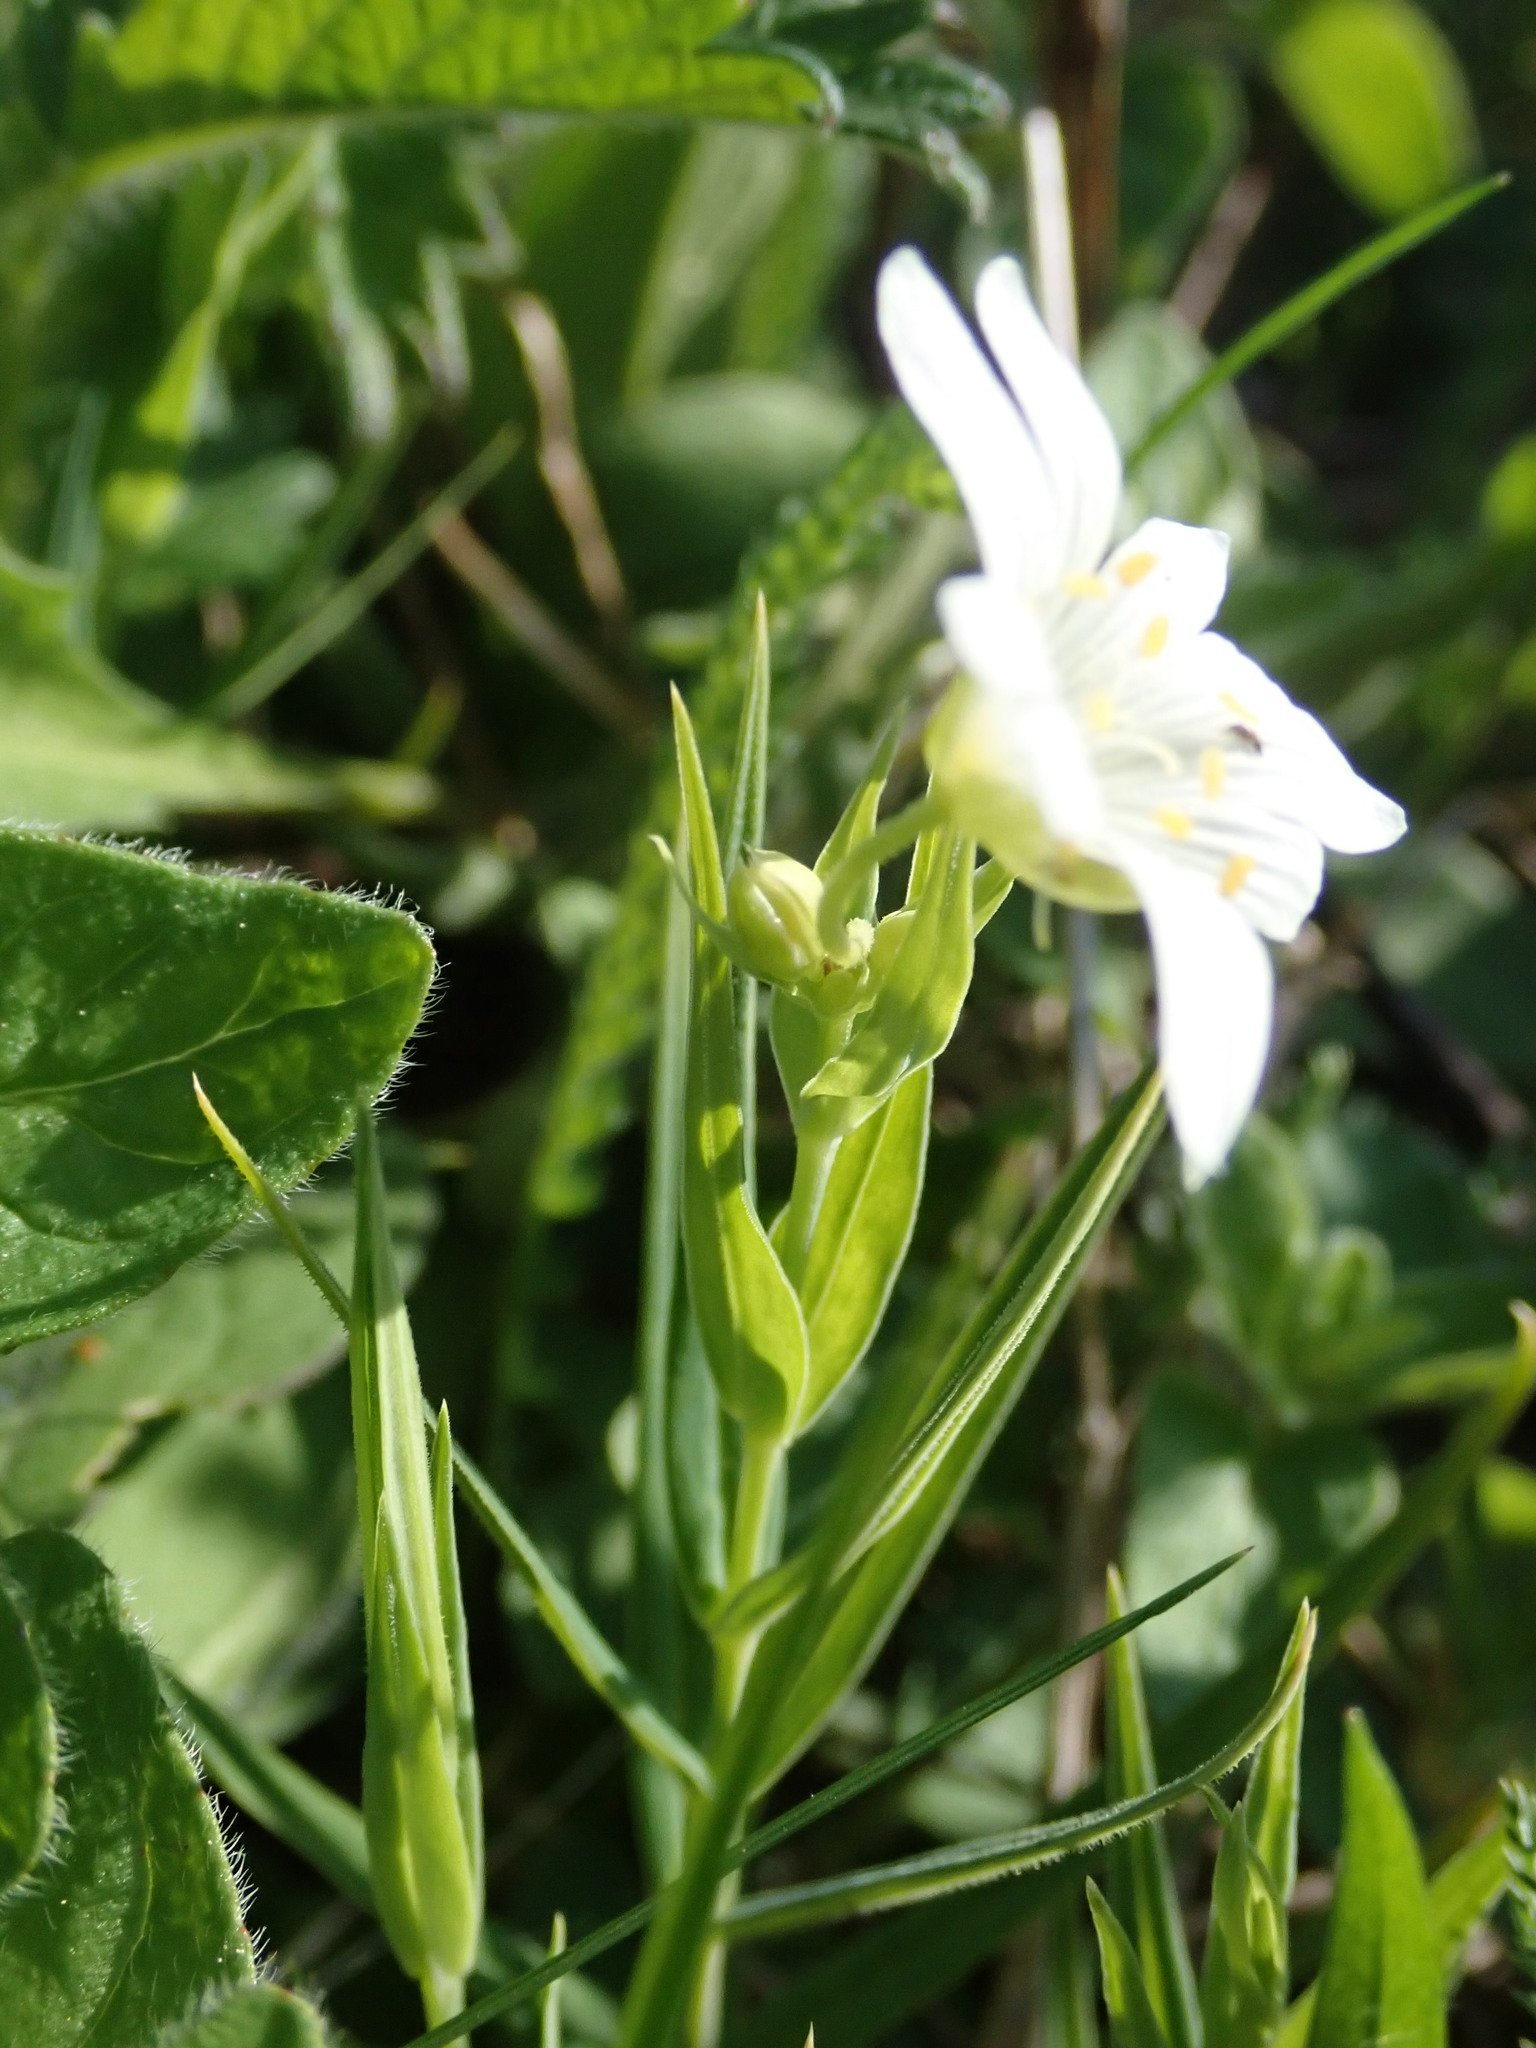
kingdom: Plantae
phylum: Tracheophyta
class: Magnoliopsida
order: Caryophyllales
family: Caryophyllaceae
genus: Rabelera
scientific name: Rabelera holostea
